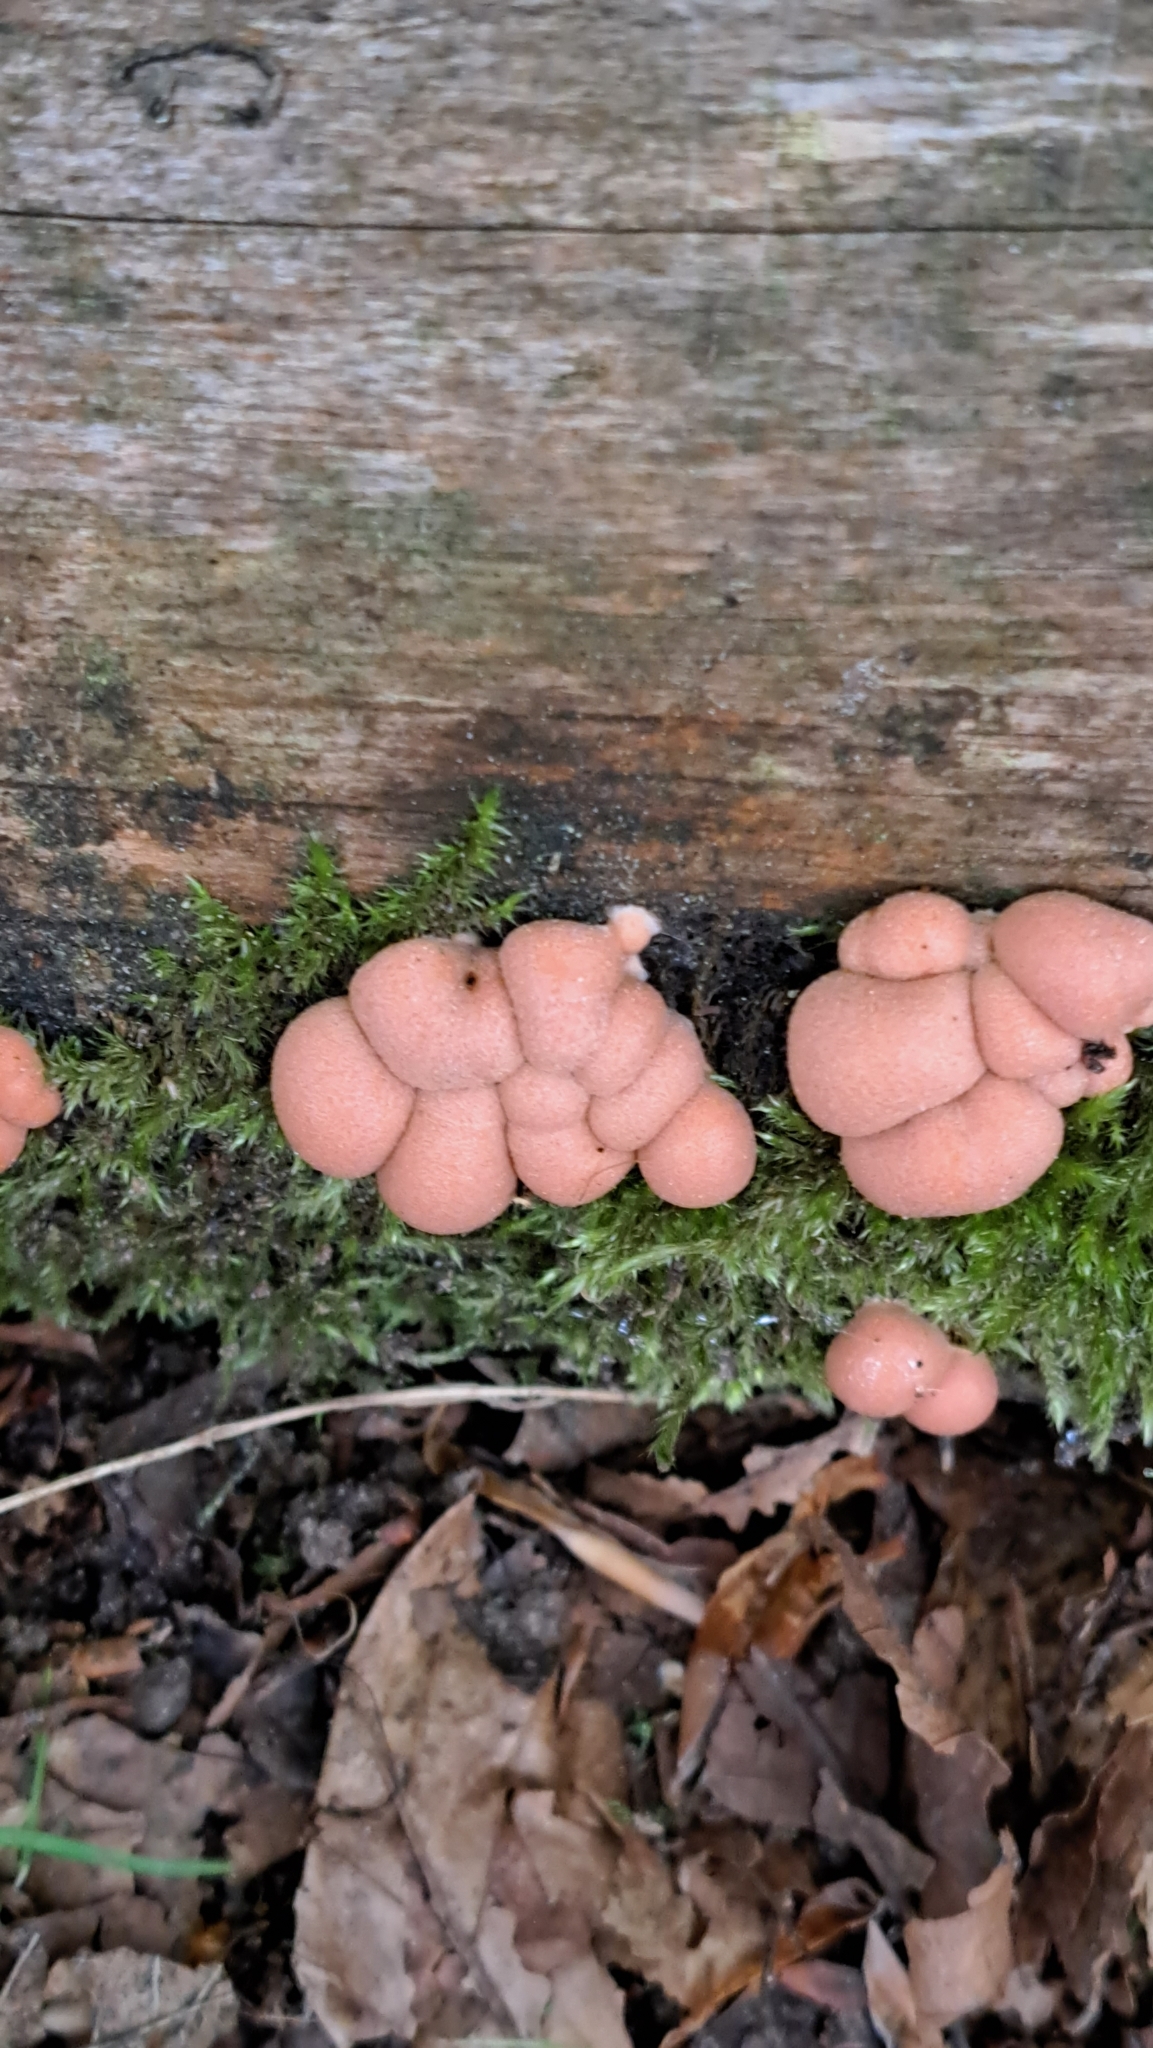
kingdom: Protozoa
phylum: Mycetozoa
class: Myxomycetes
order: Cribrariales
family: Tubiferaceae
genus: Lycogala
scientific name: Lycogala epidendrum
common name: Wolf's milk
